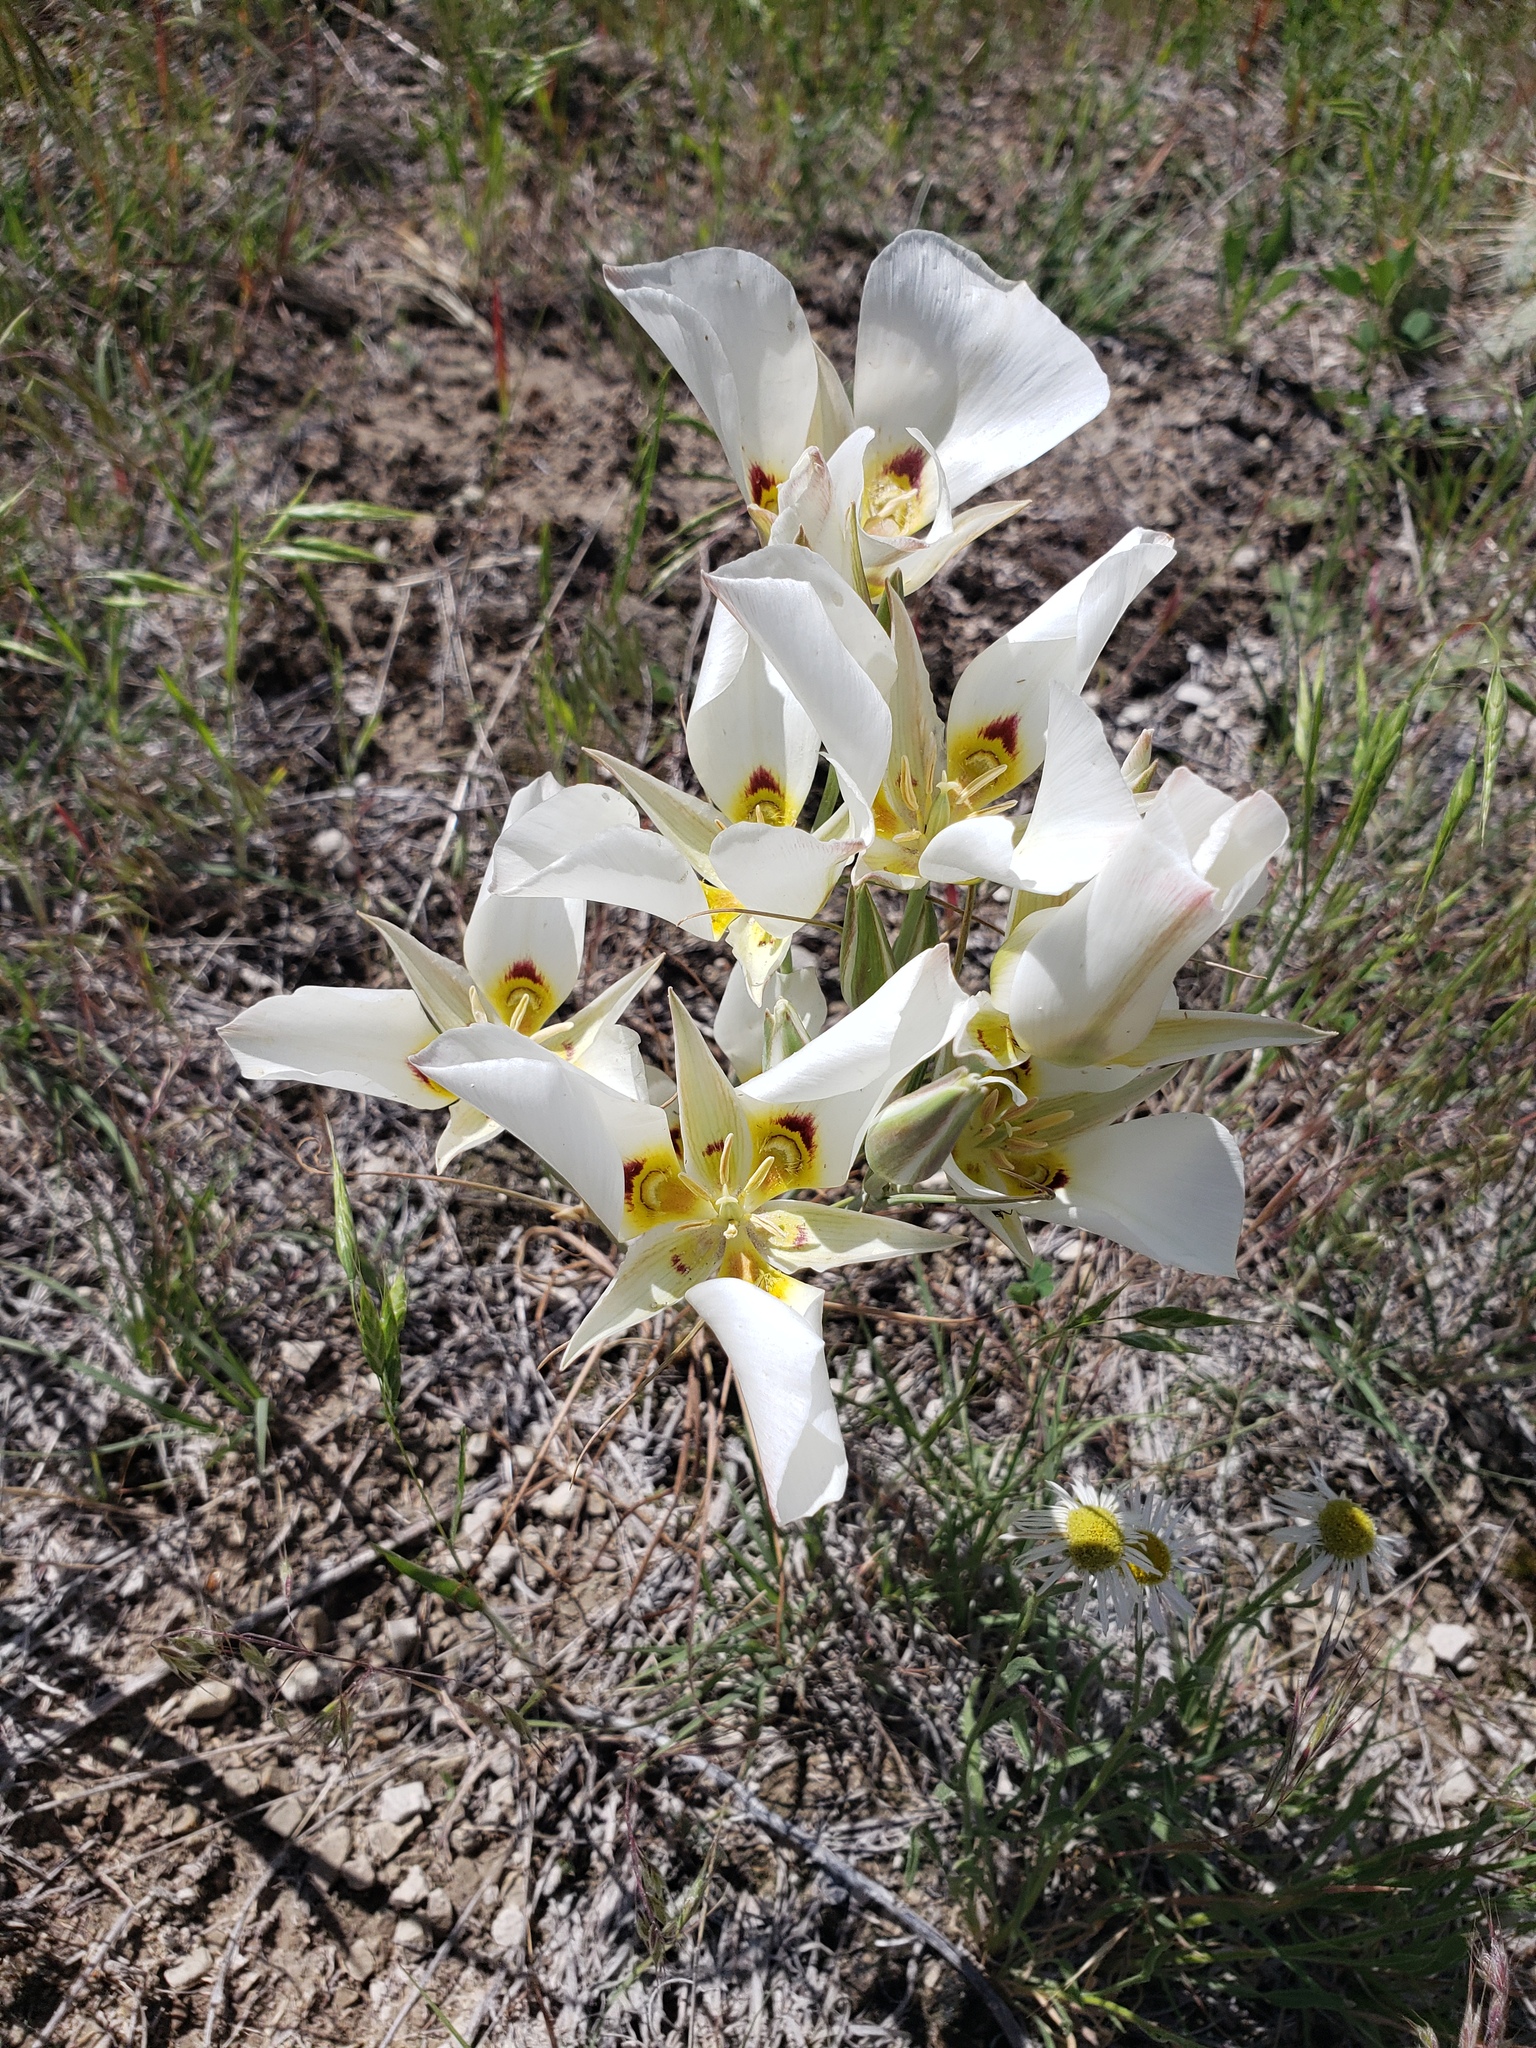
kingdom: Plantae
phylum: Tracheophyta
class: Liliopsida
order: Liliales
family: Liliaceae
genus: Calochortus
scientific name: Calochortus nuttallii
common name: Sego-lily
